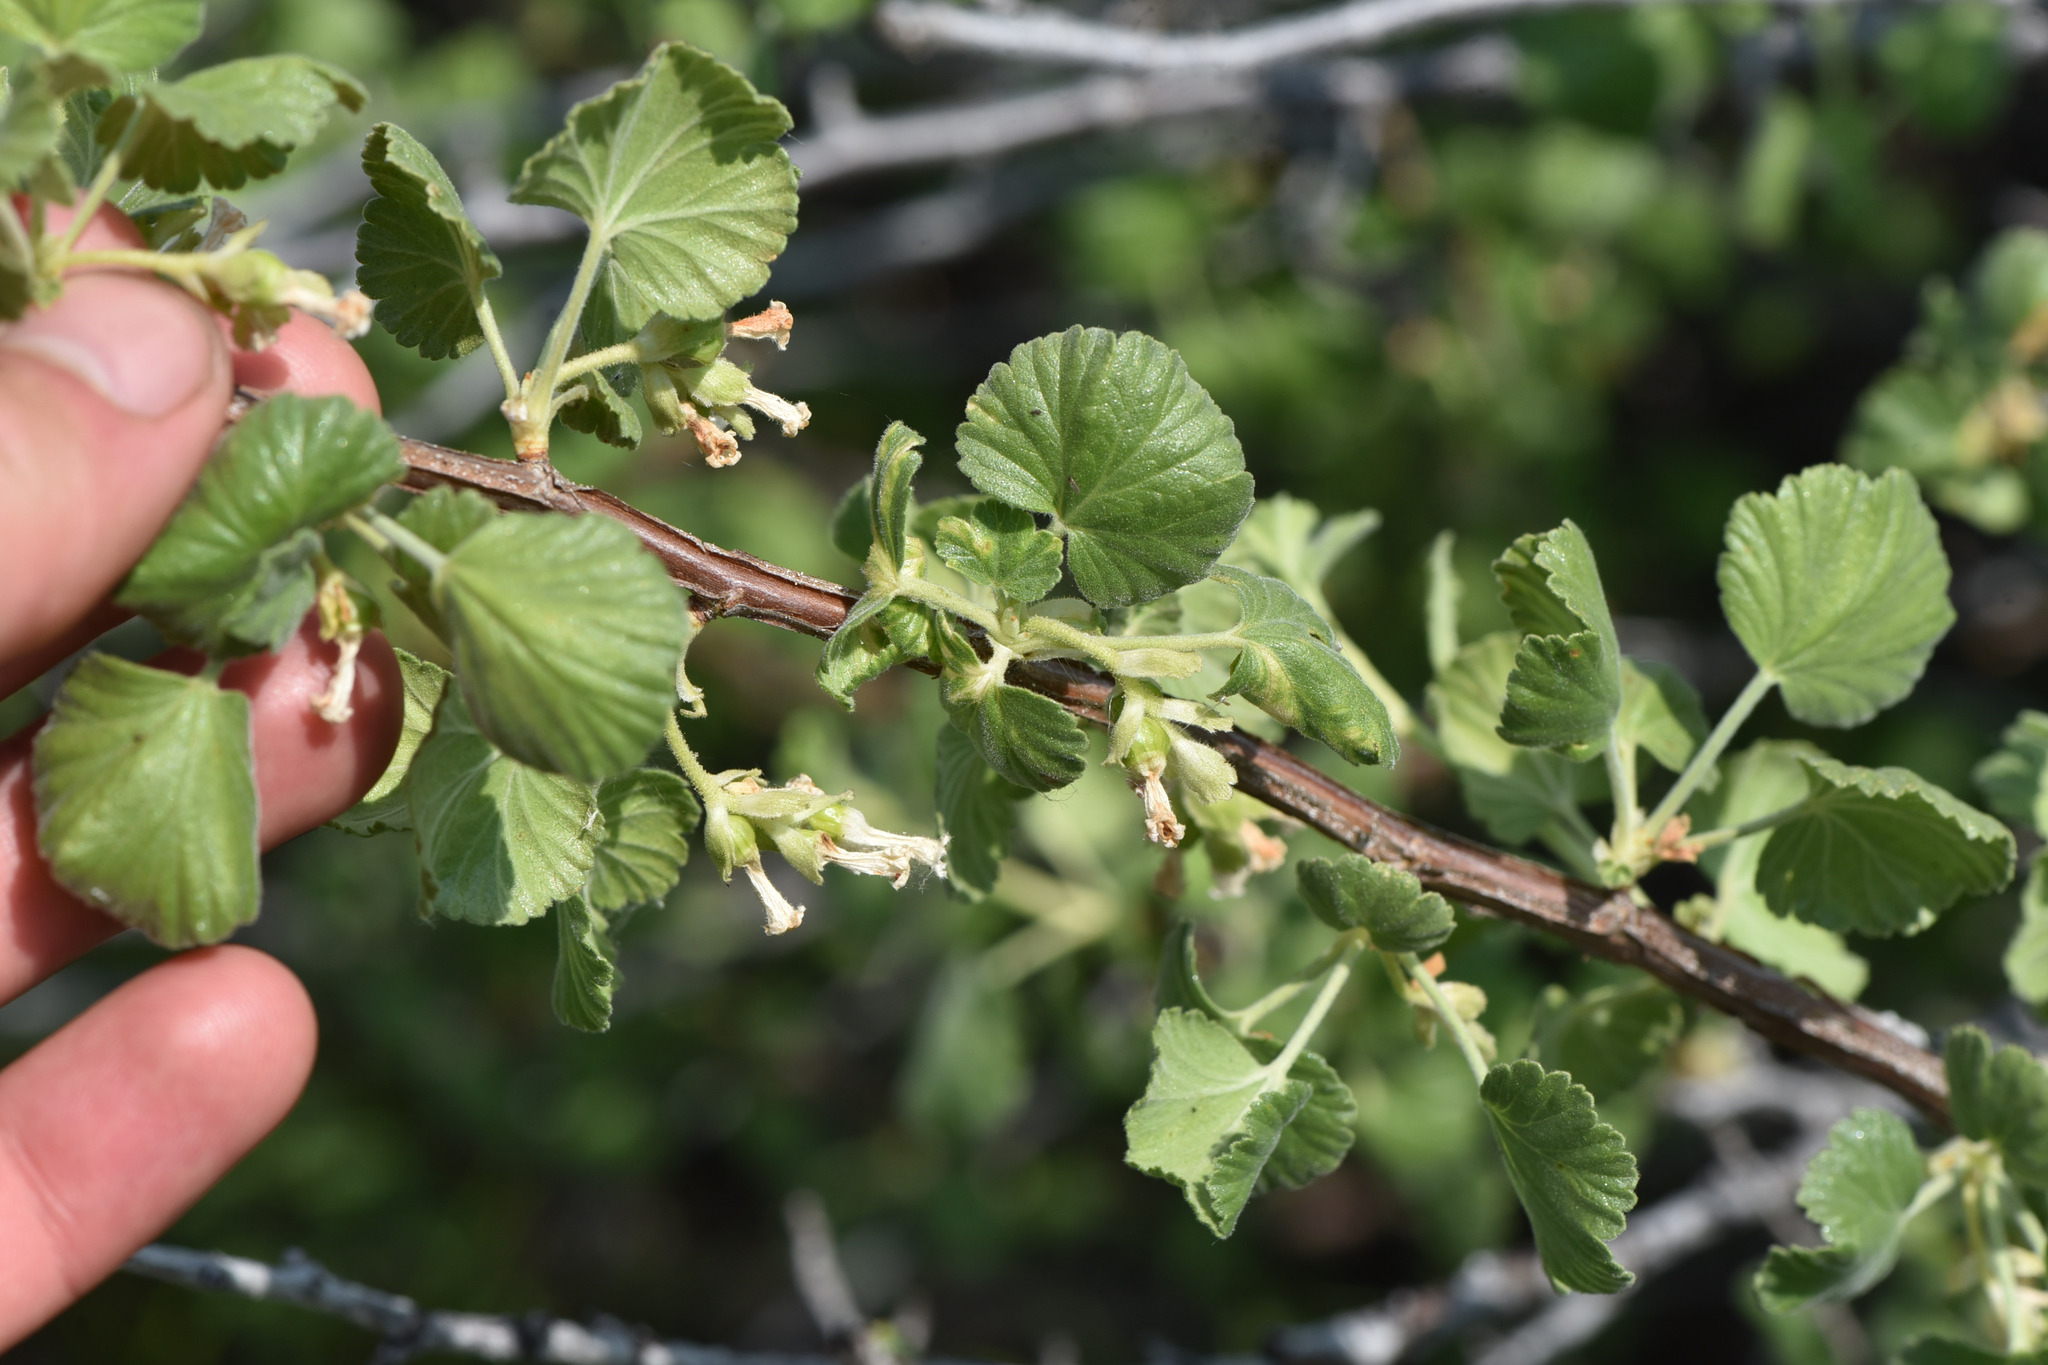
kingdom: Plantae
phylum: Tracheophyta
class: Magnoliopsida
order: Saxifragales
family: Grossulariaceae
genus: Ribes
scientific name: Ribes cereum
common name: Wax currant
